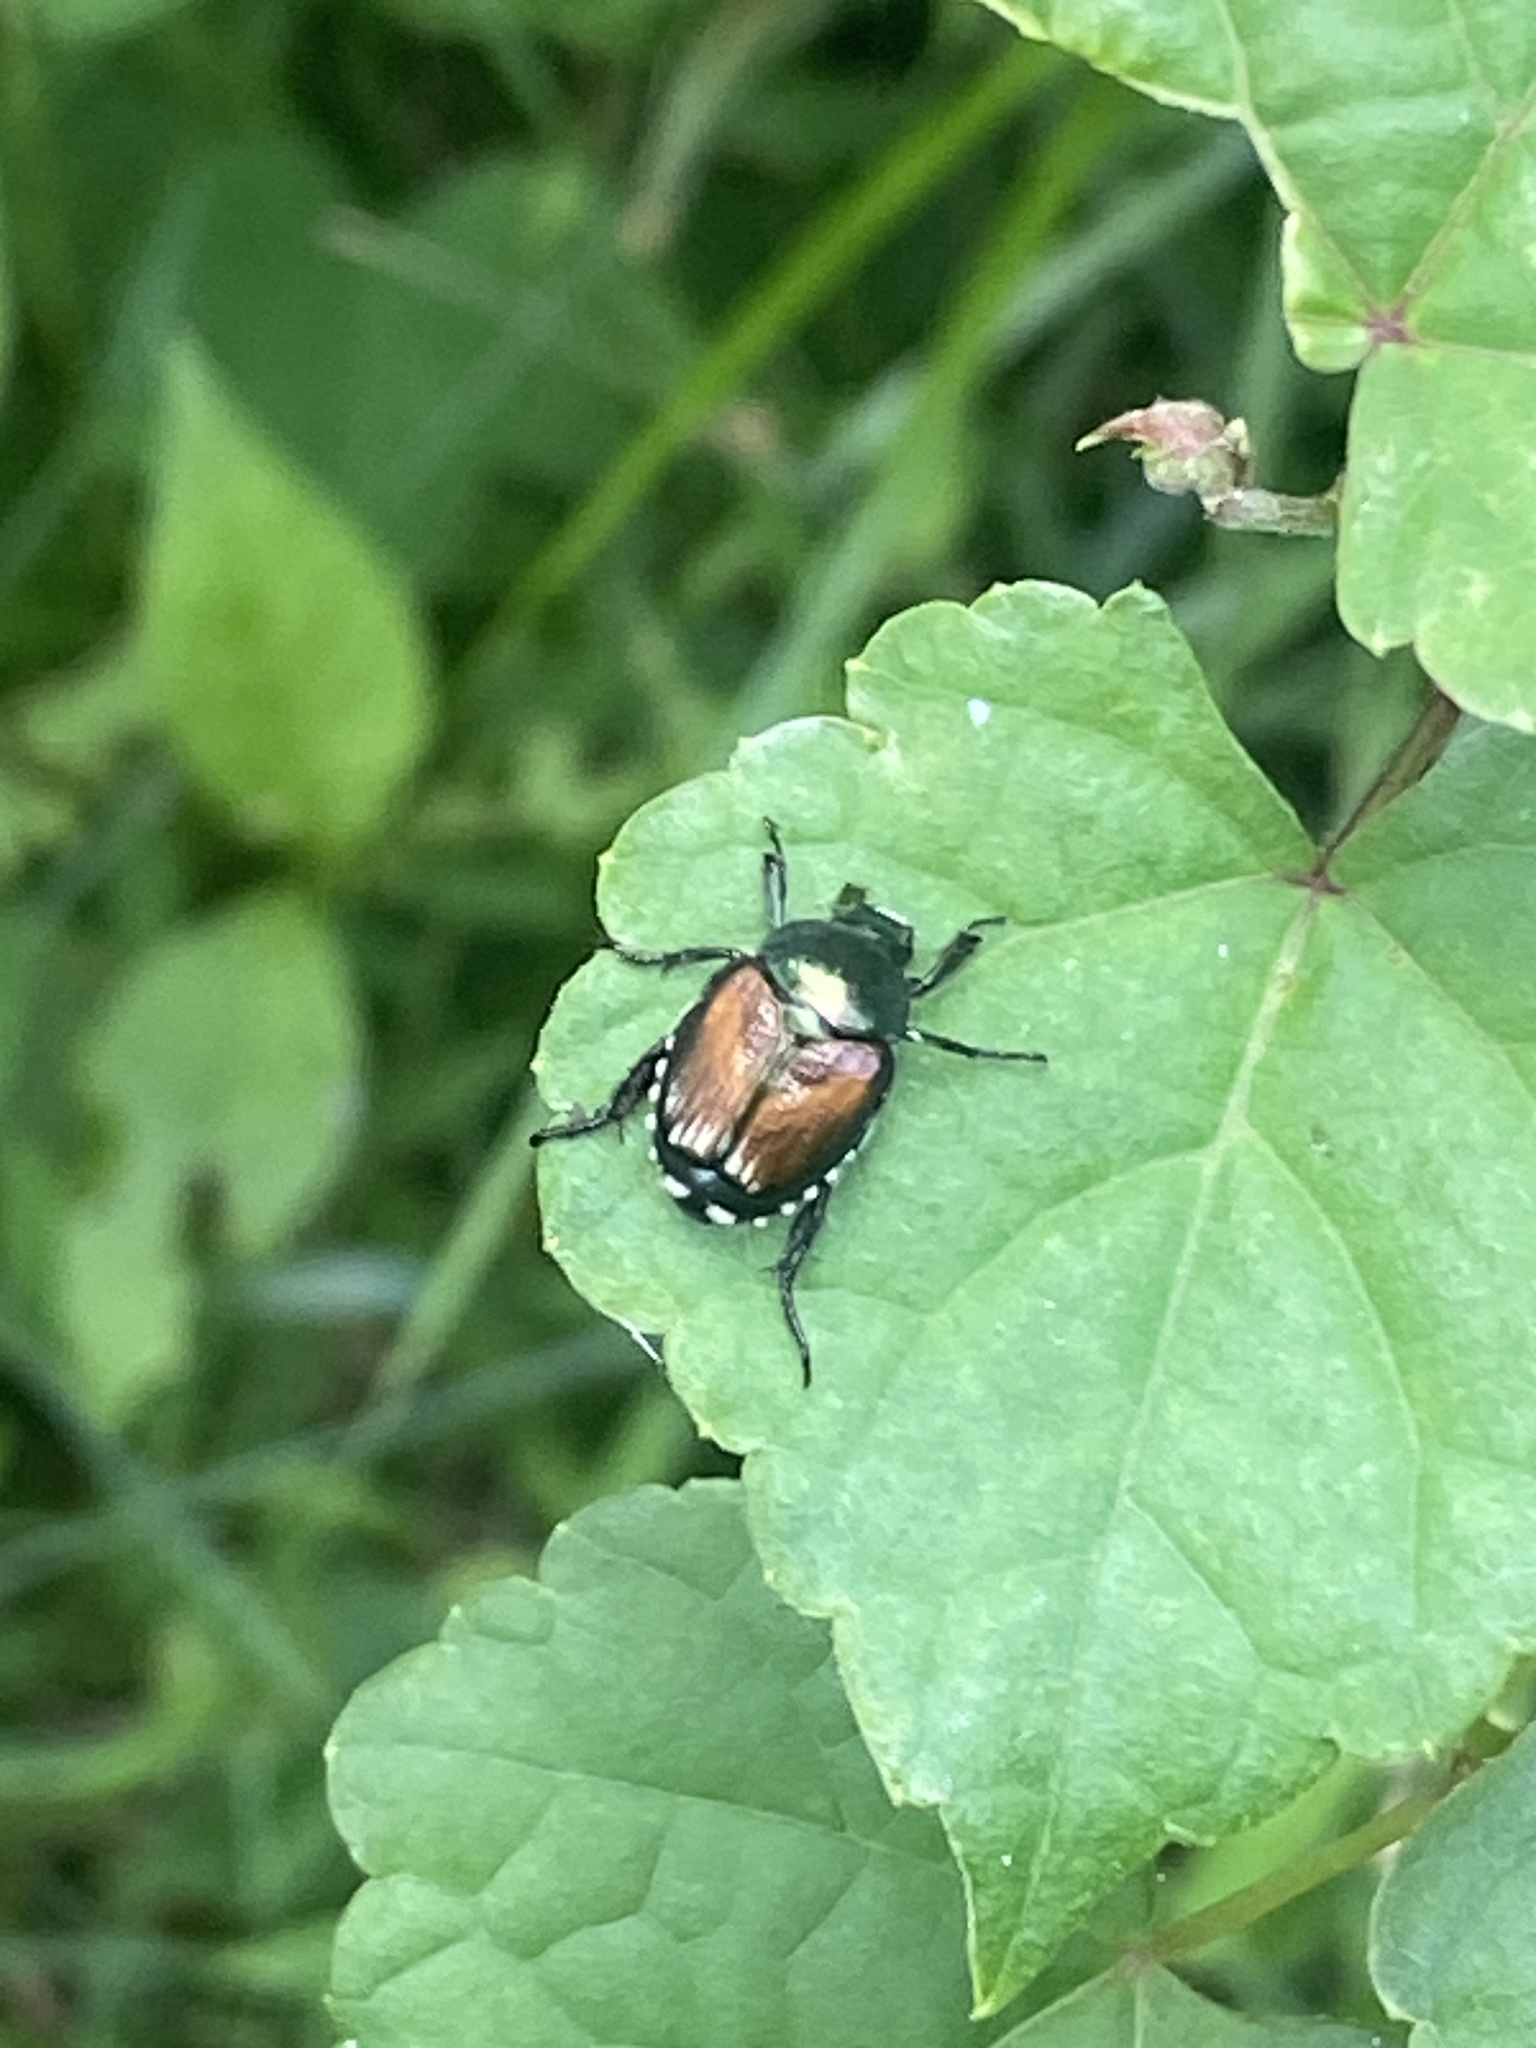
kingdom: Animalia
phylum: Arthropoda
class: Insecta
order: Coleoptera
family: Scarabaeidae
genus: Popillia
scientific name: Popillia japonica
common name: Japanese beetle
